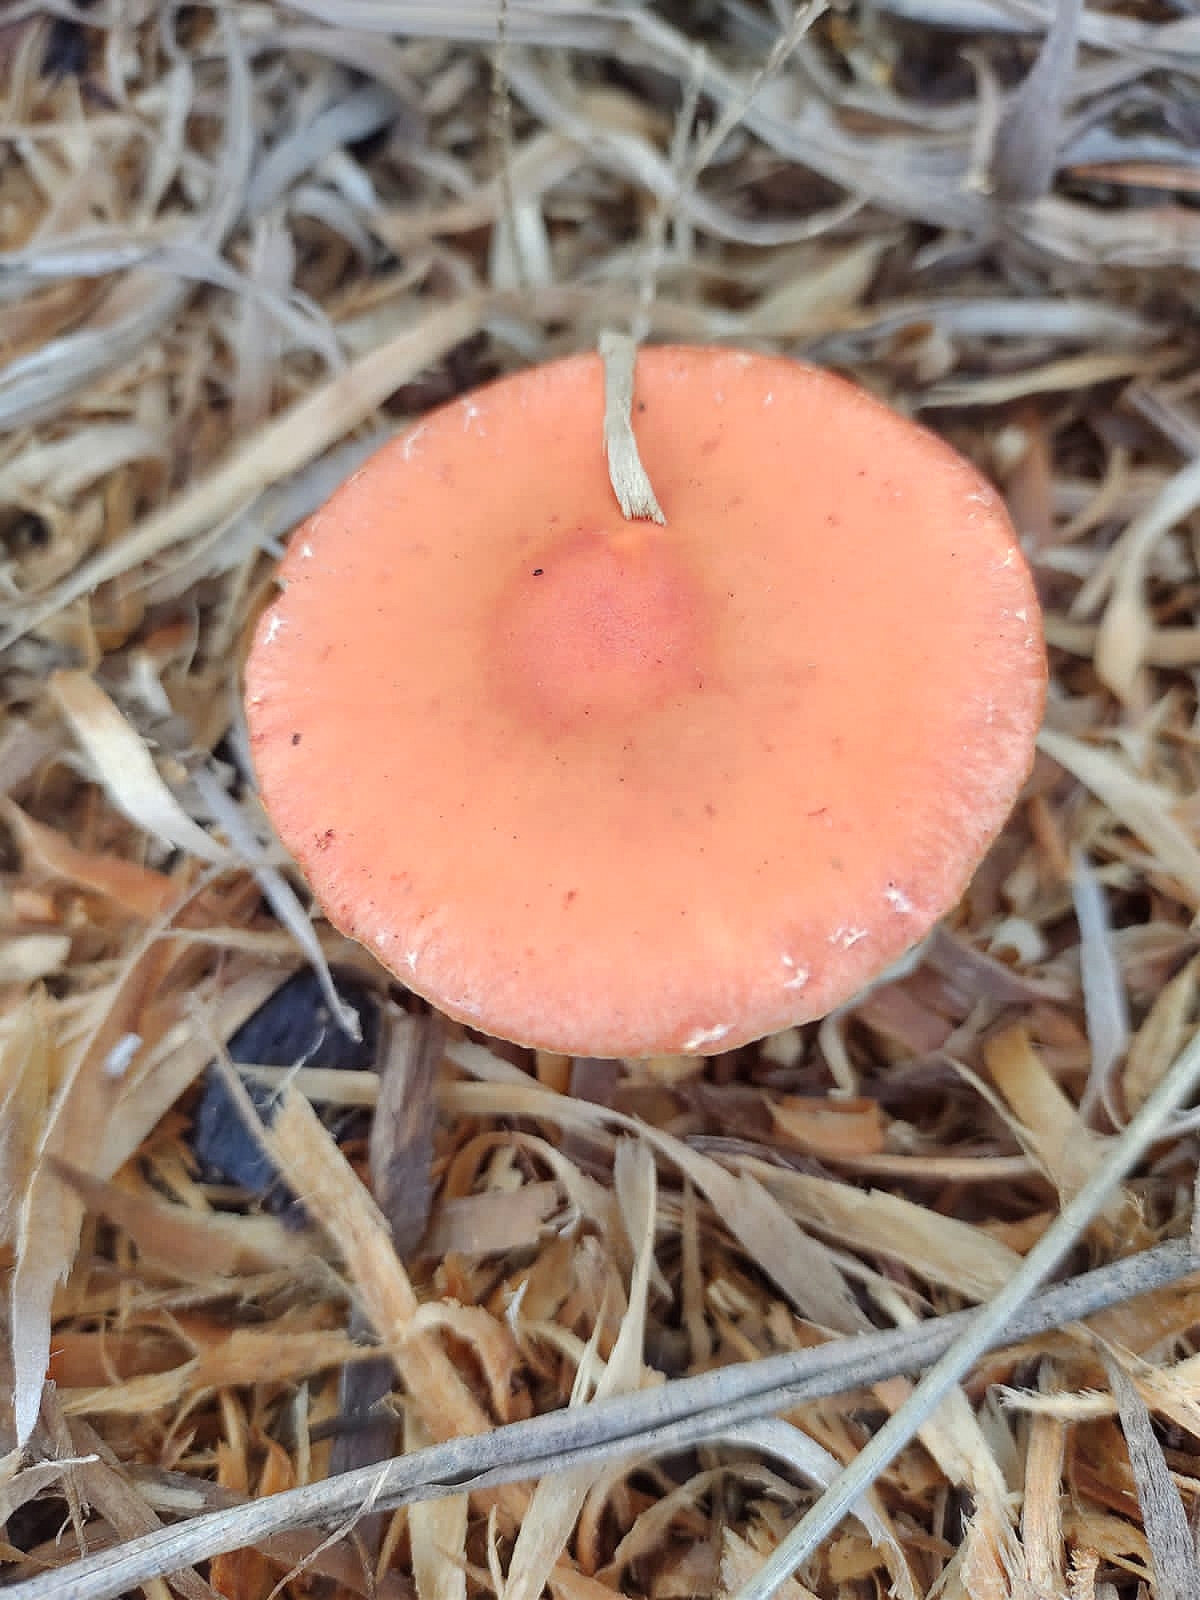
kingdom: Fungi
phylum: Basidiomycota
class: Agaricomycetes
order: Agaricales
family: Strophariaceae
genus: Leratiomyces
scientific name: Leratiomyces ceres
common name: Redlead roundhead
